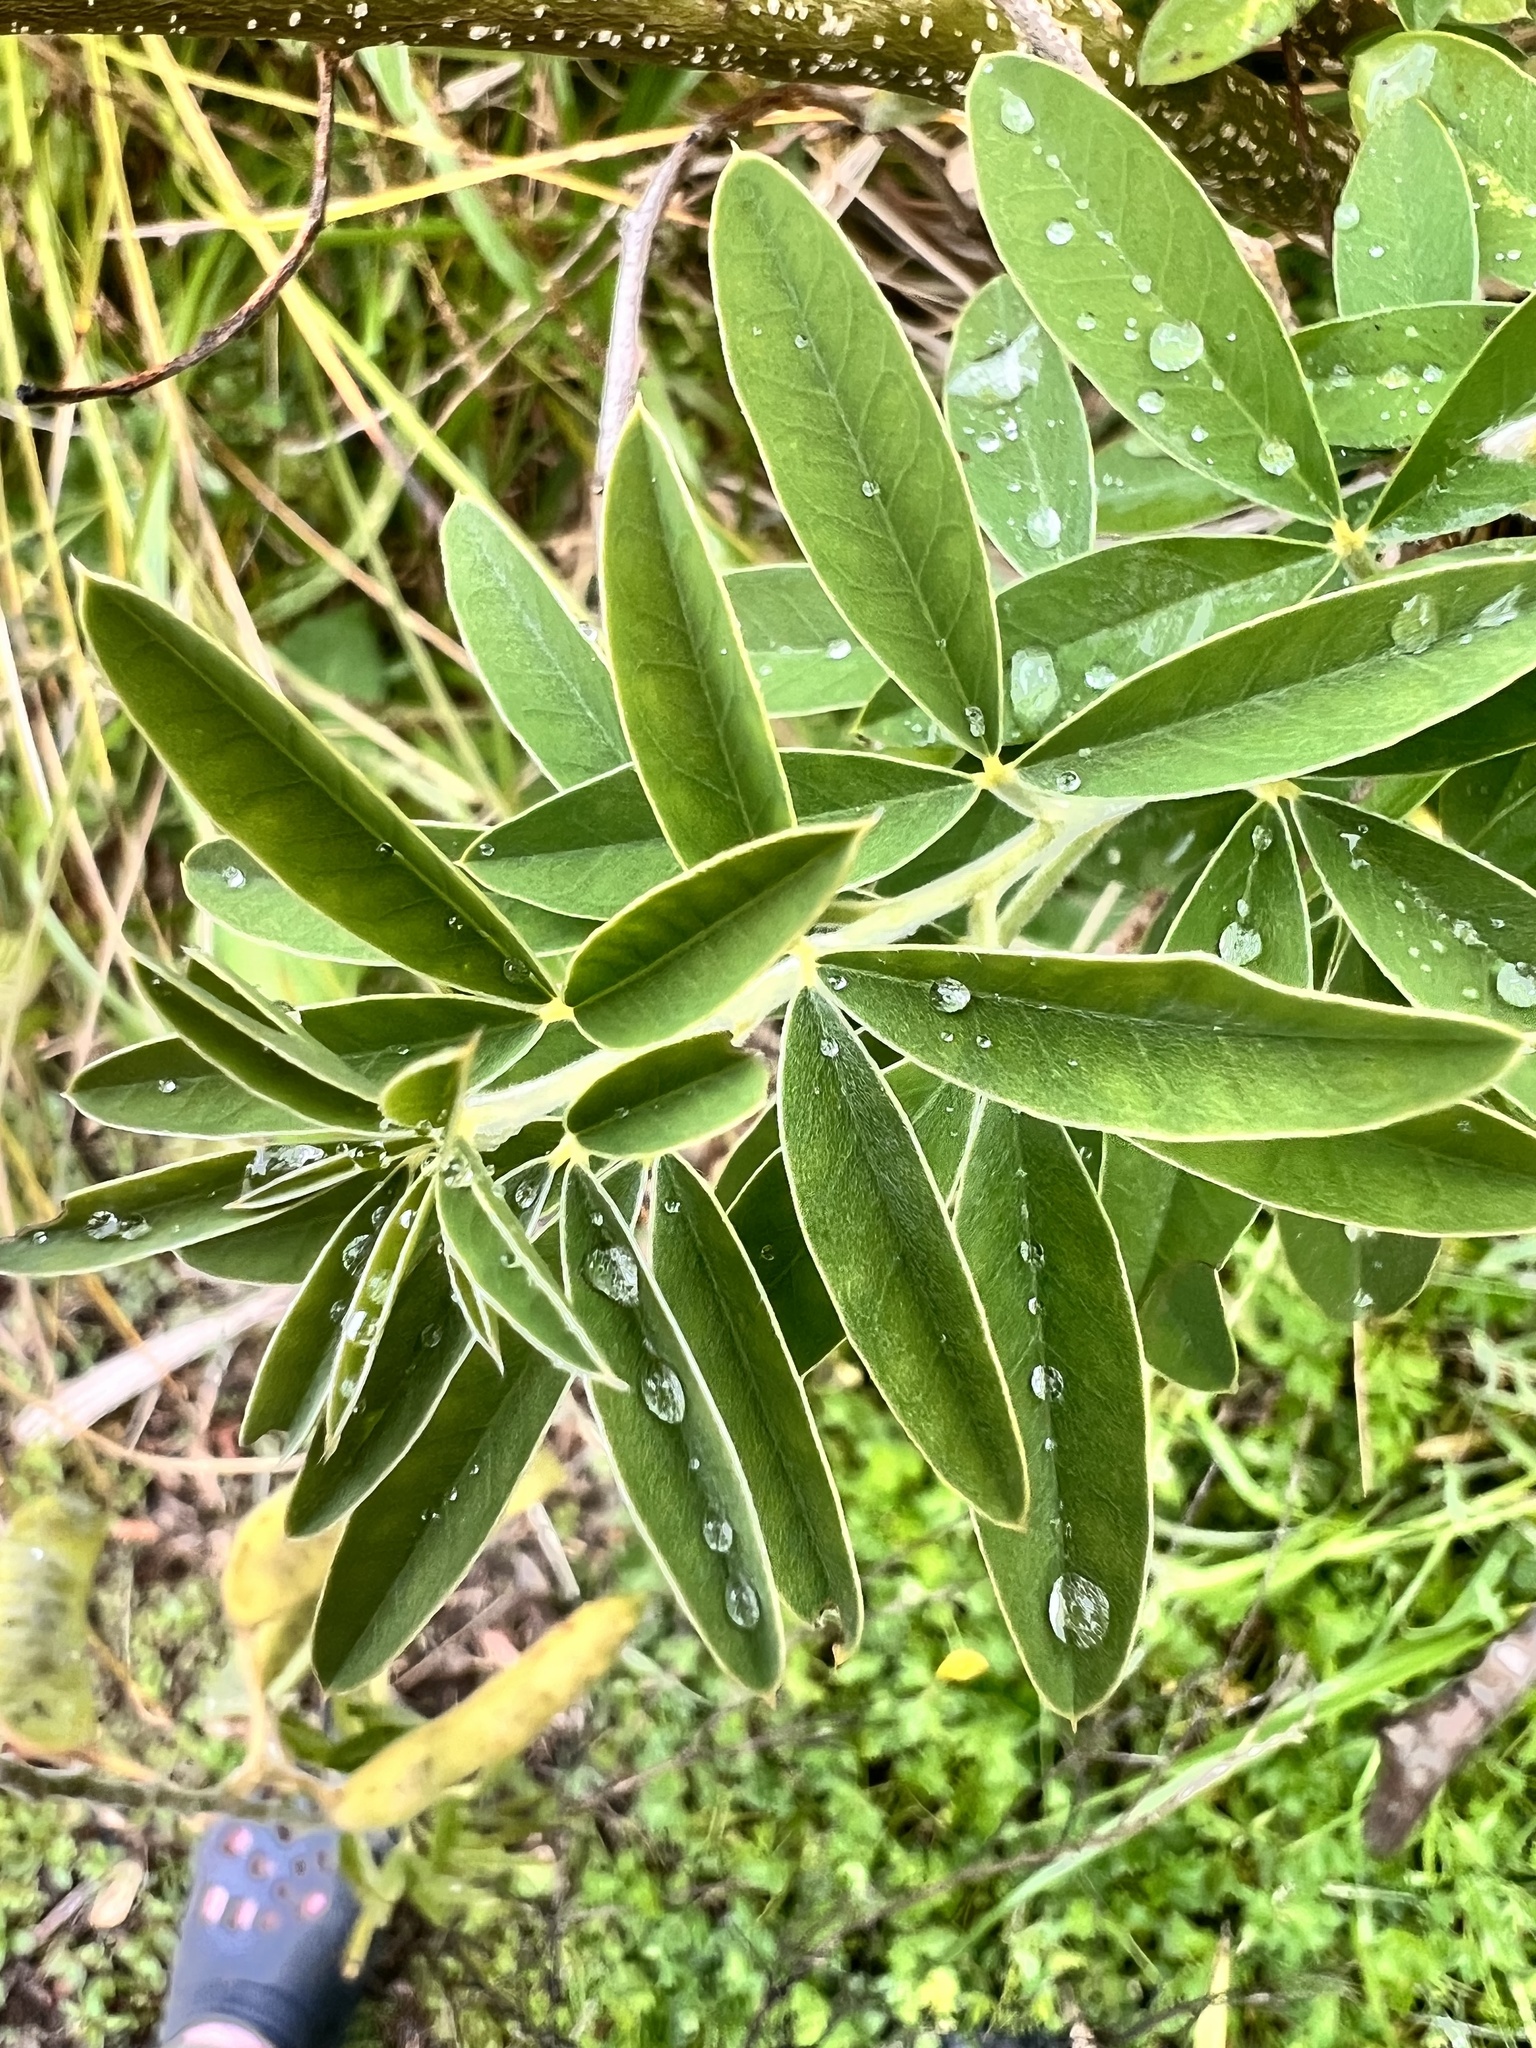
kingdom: Plantae
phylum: Tracheophyta
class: Magnoliopsida
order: Fabales
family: Fabaceae
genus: Chamaecytisus
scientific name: Chamaecytisus prolifer
